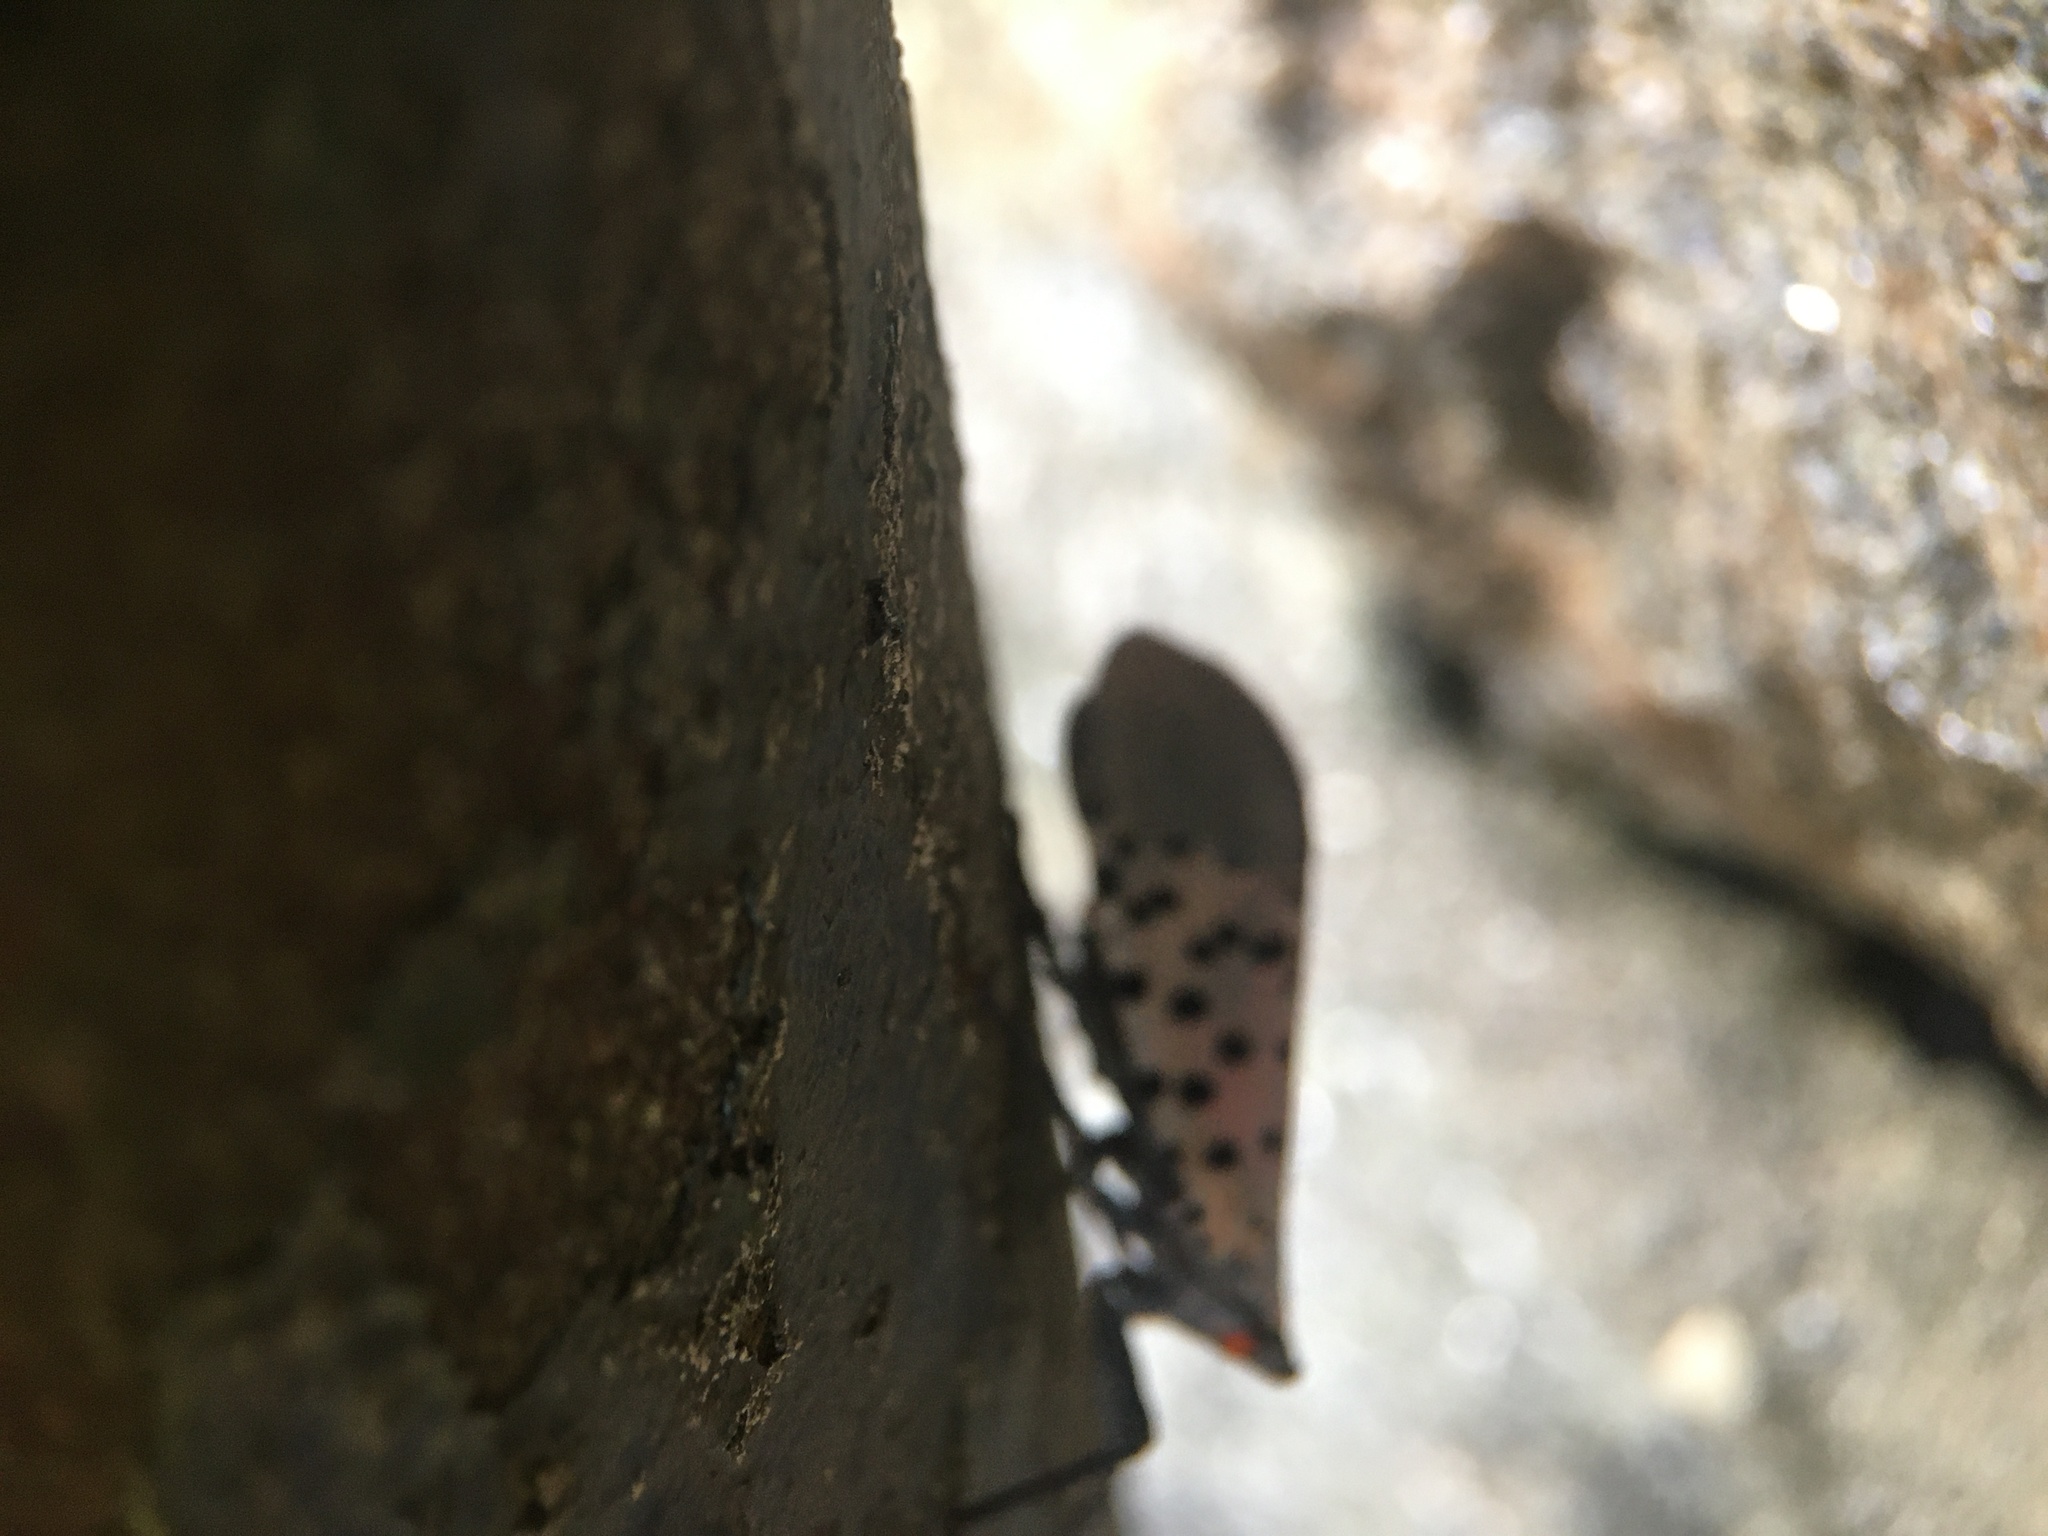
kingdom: Animalia
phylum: Arthropoda
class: Insecta
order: Hemiptera
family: Fulgoridae
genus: Lycorma
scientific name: Lycorma delicatula
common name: Spotted lanternfly
